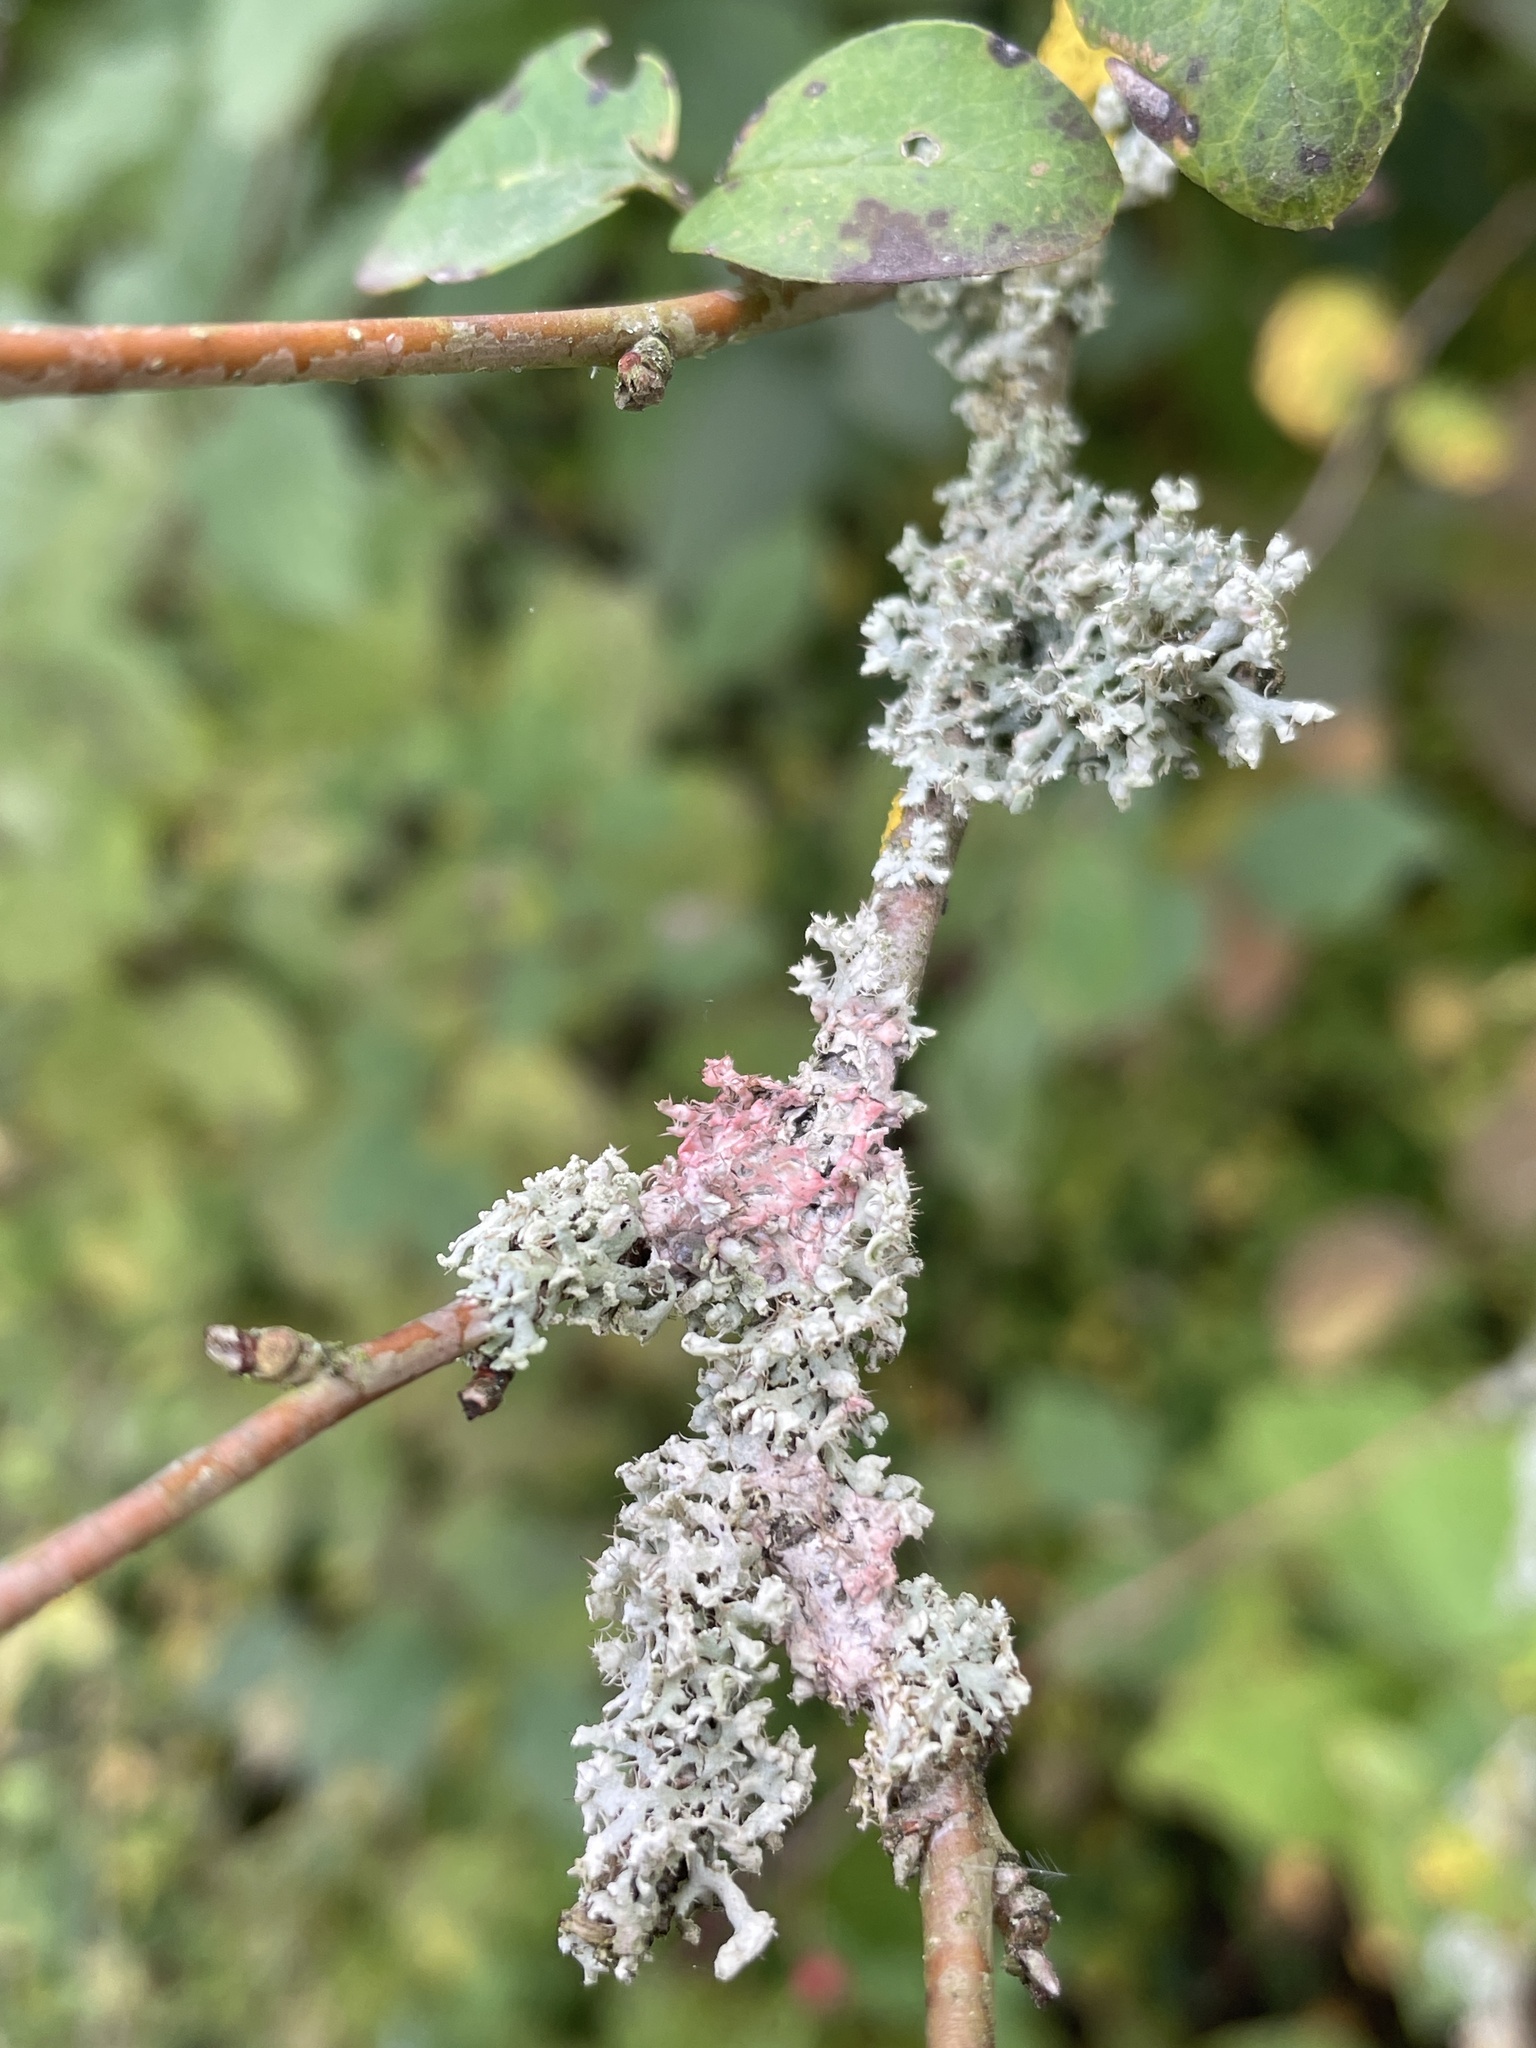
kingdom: Fungi
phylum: Ascomycota
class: Lecanoromycetes
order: Caliciales
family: Physciaceae
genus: Physcia
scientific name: Physcia adscendens
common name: Hooded rosette lichen
